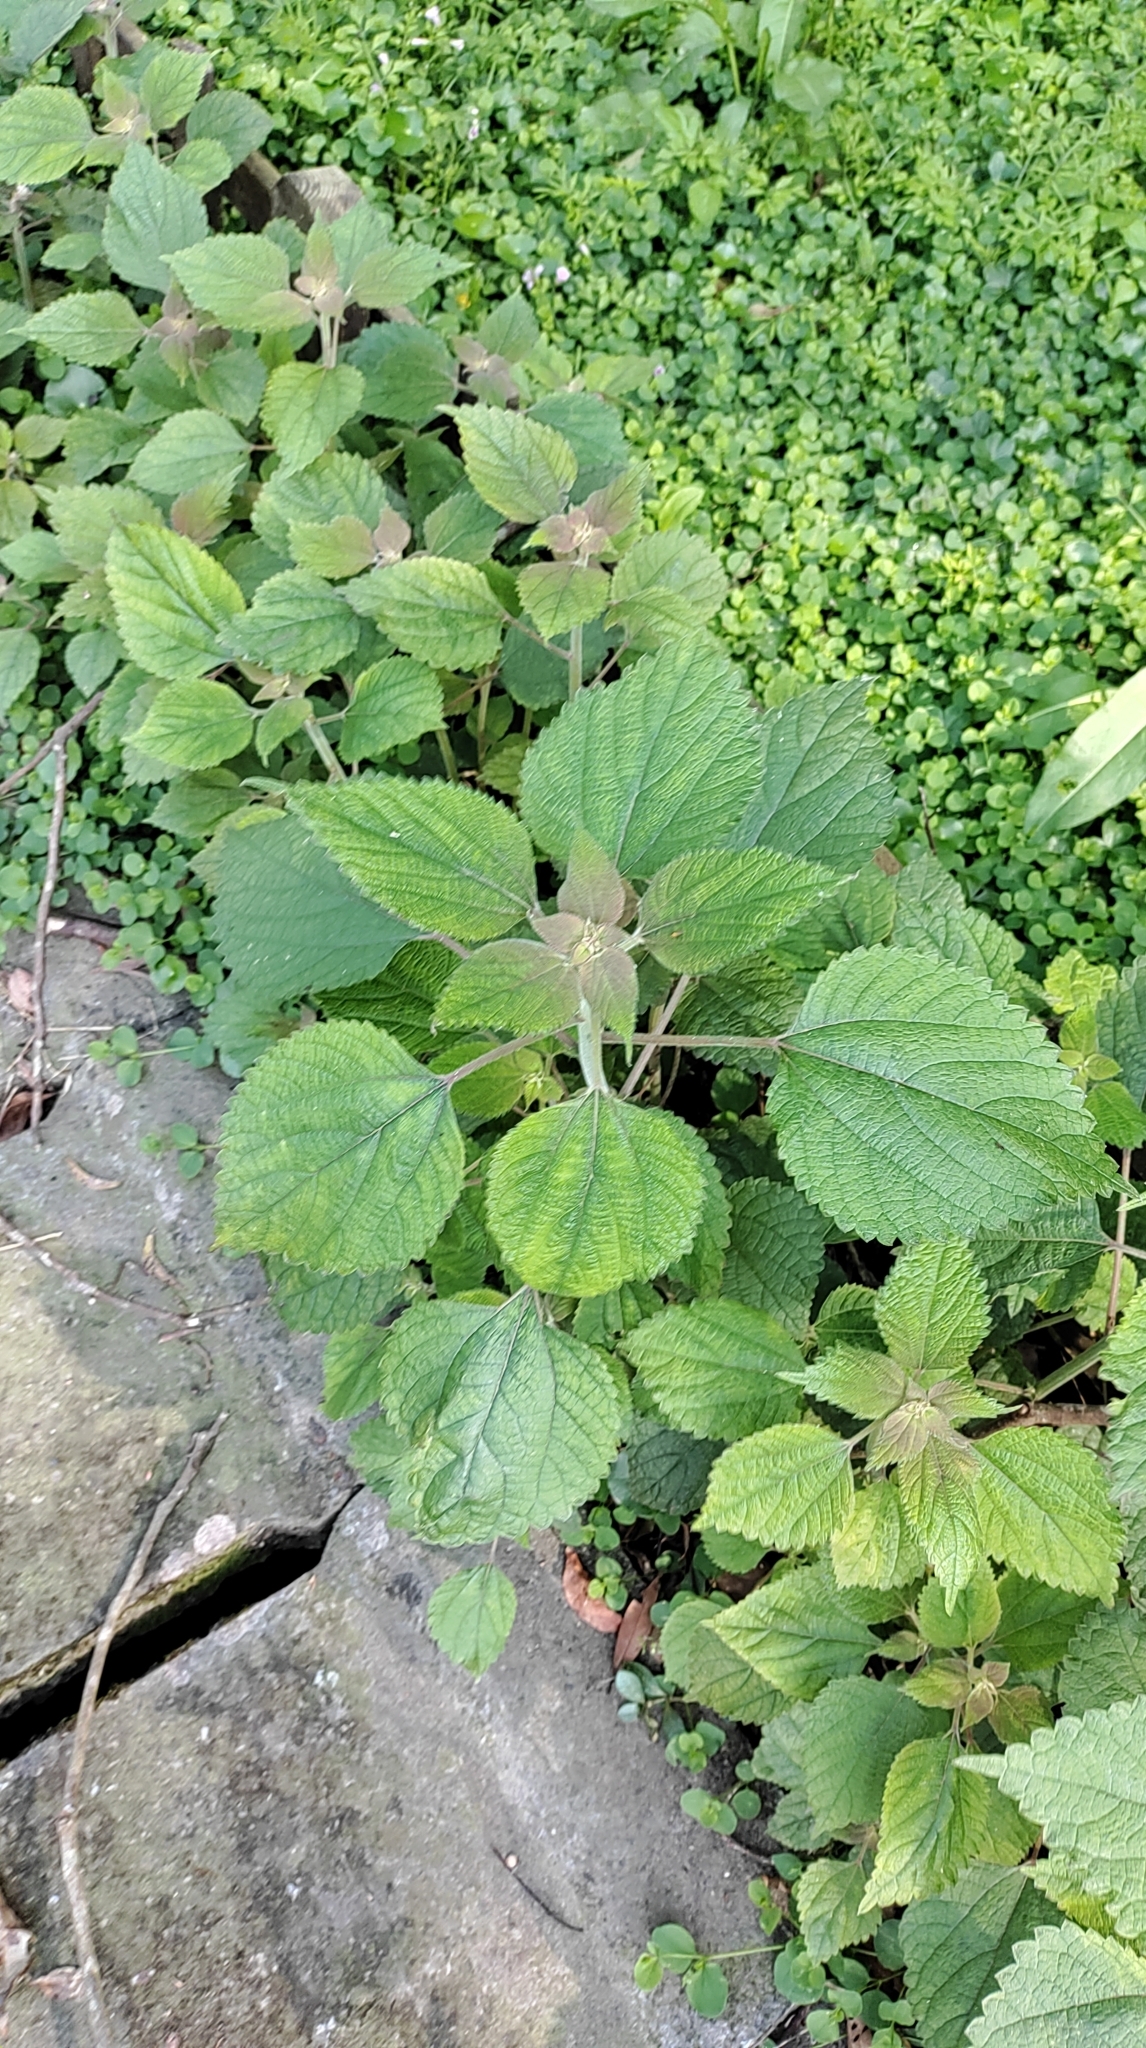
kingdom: Plantae
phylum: Tracheophyta
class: Magnoliopsida
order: Rosales
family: Urticaceae
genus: Boehmeria
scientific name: Boehmeria nivea
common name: Ramie chinese grass
